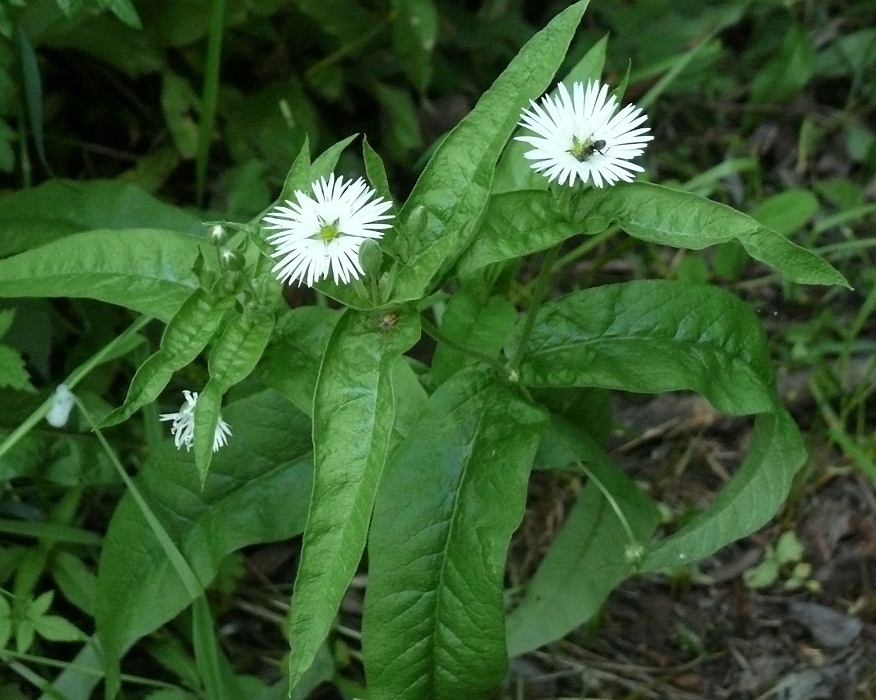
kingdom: Plantae
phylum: Tracheophyta
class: Magnoliopsida
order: Caryophyllales
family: Caryophyllaceae
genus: Stellaria
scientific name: Stellaria radians
